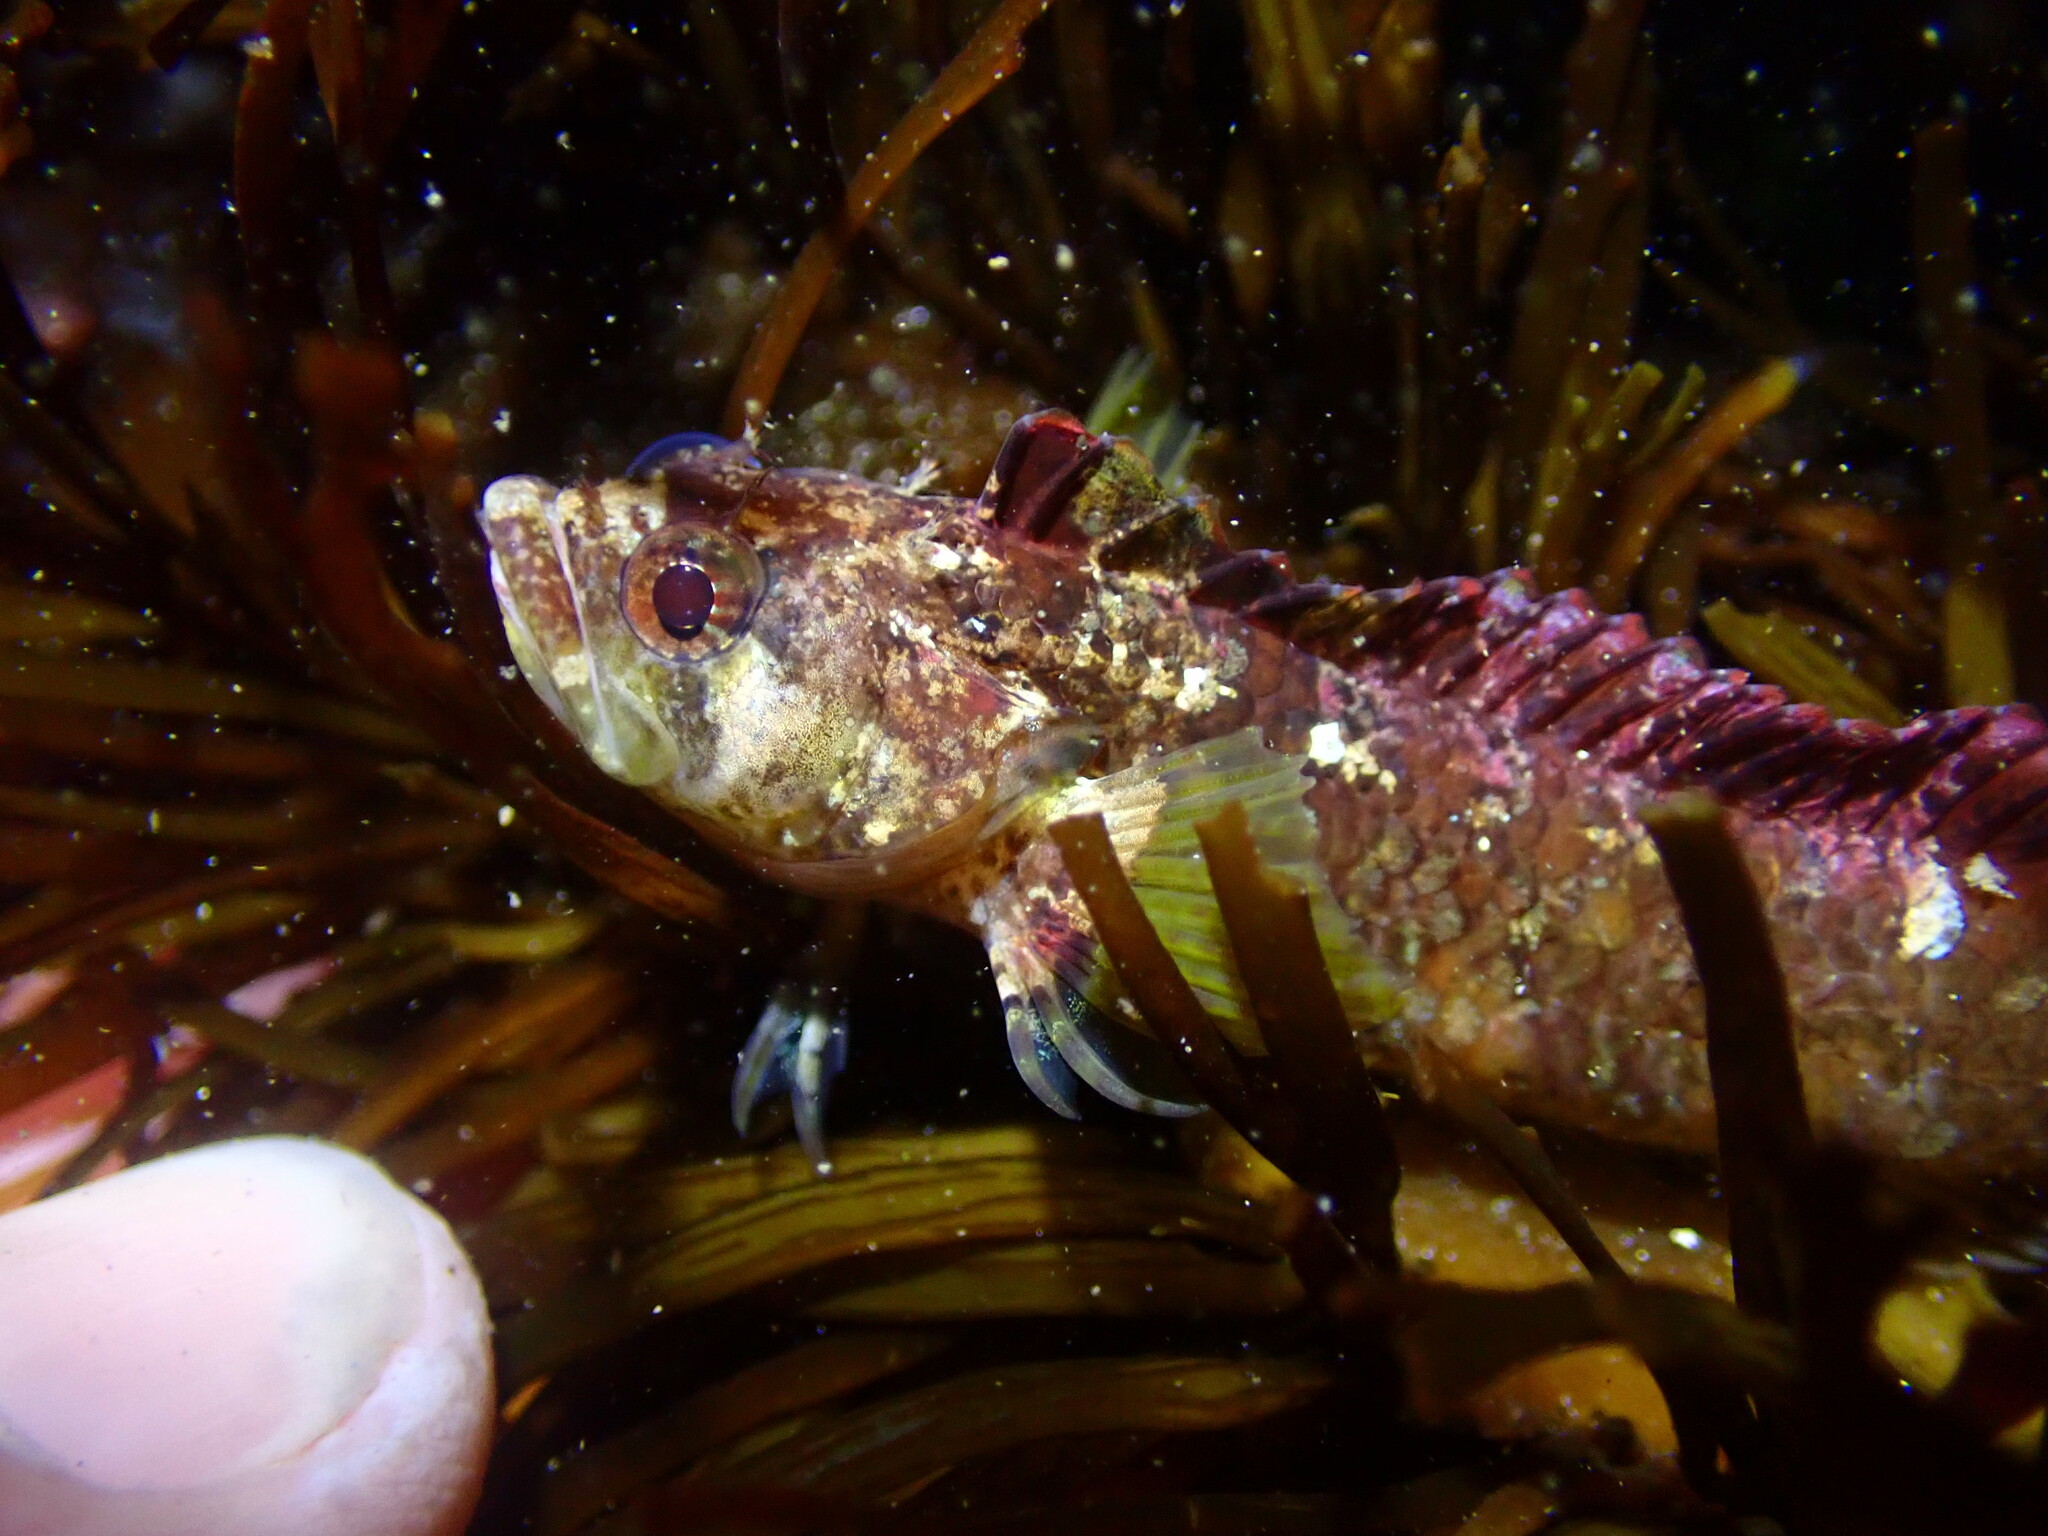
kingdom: Animalia
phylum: Chordata
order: Perciformes
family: Labrisomidae
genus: Paraclinus
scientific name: Paraclinus integripinnis
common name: Reef finspot
